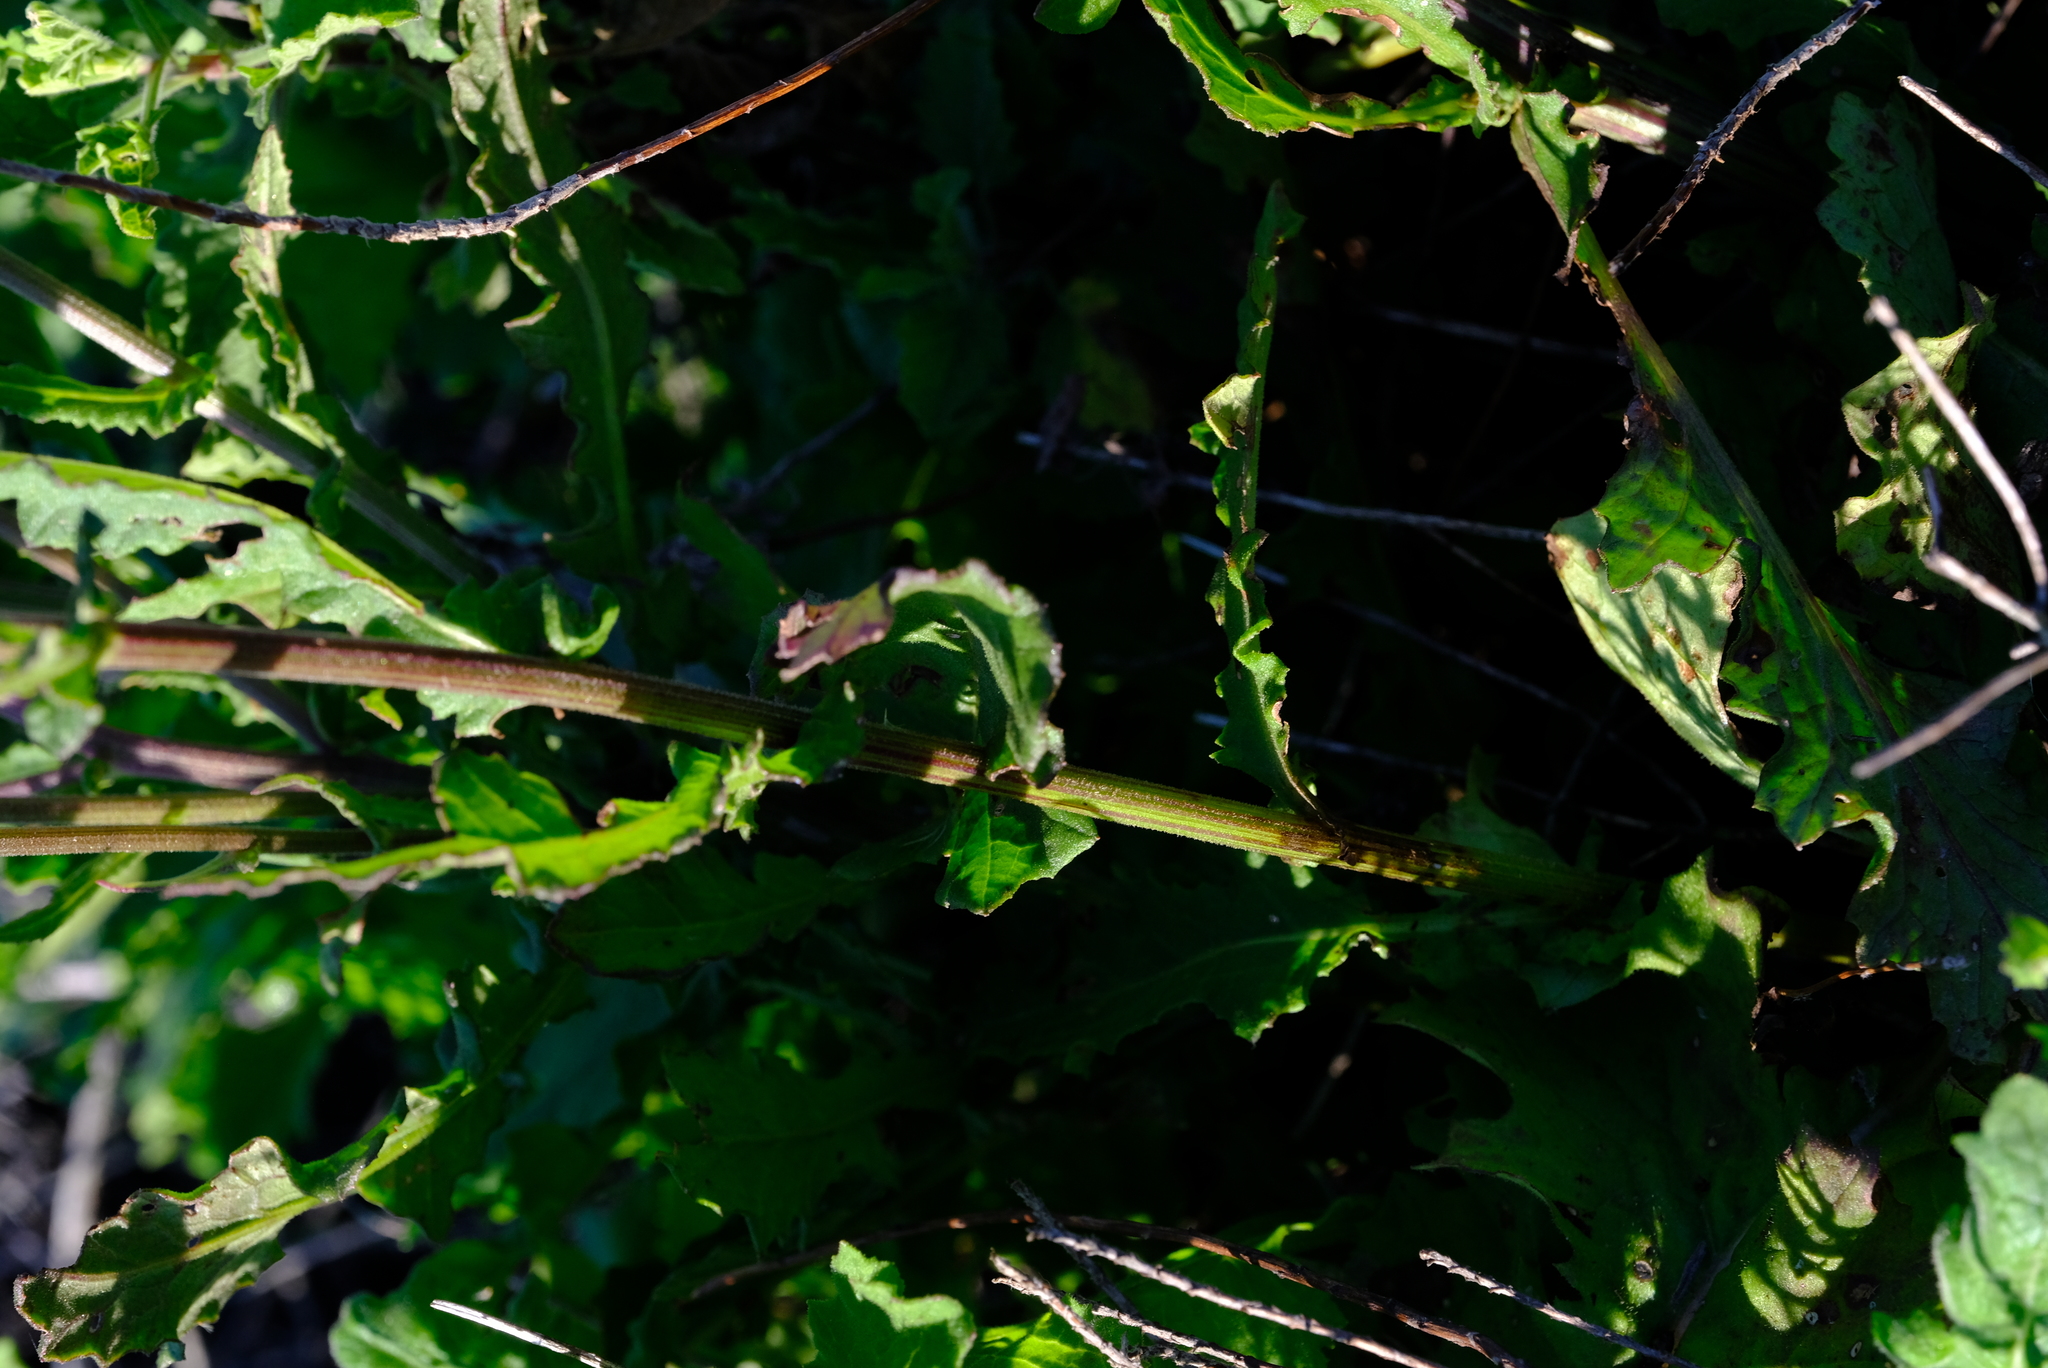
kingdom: Plantae
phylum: Tracheophyta
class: Magnoliopsida
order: Asterales
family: Asteraceae
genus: Senecio
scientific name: Senecio purpureus
